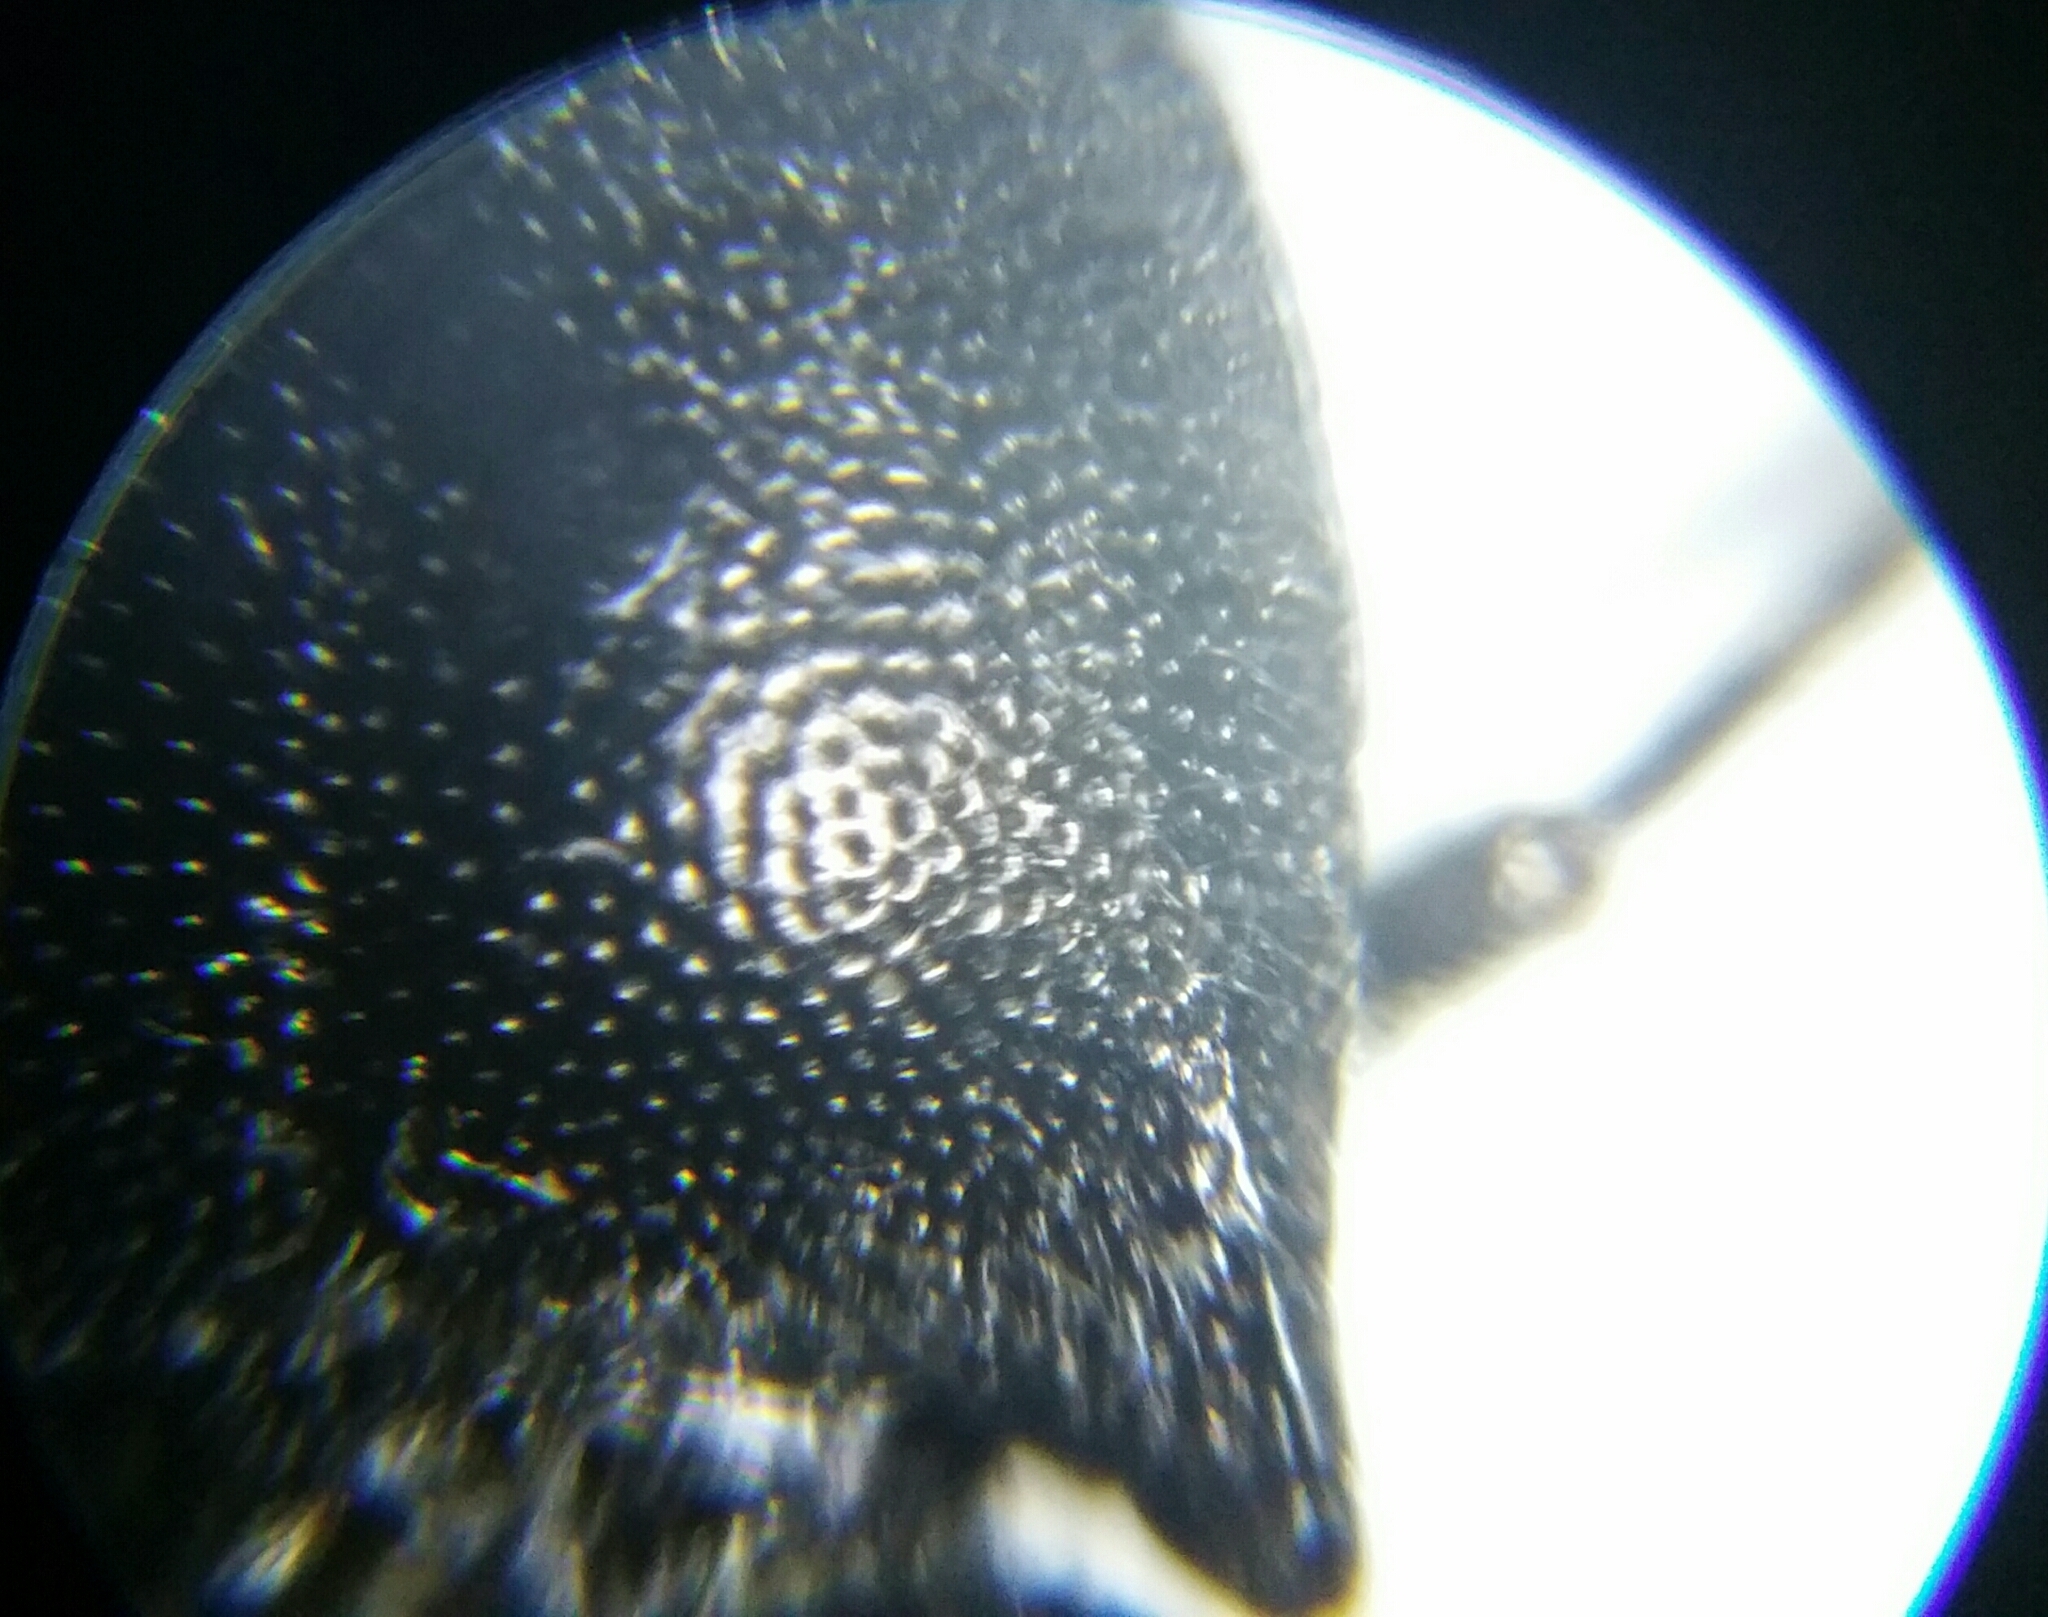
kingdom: Animalia
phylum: Arthropoda
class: Insecta
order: Coleoptera
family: Elateridae
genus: Cidnopus
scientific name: Cidnopus aeruginosus
